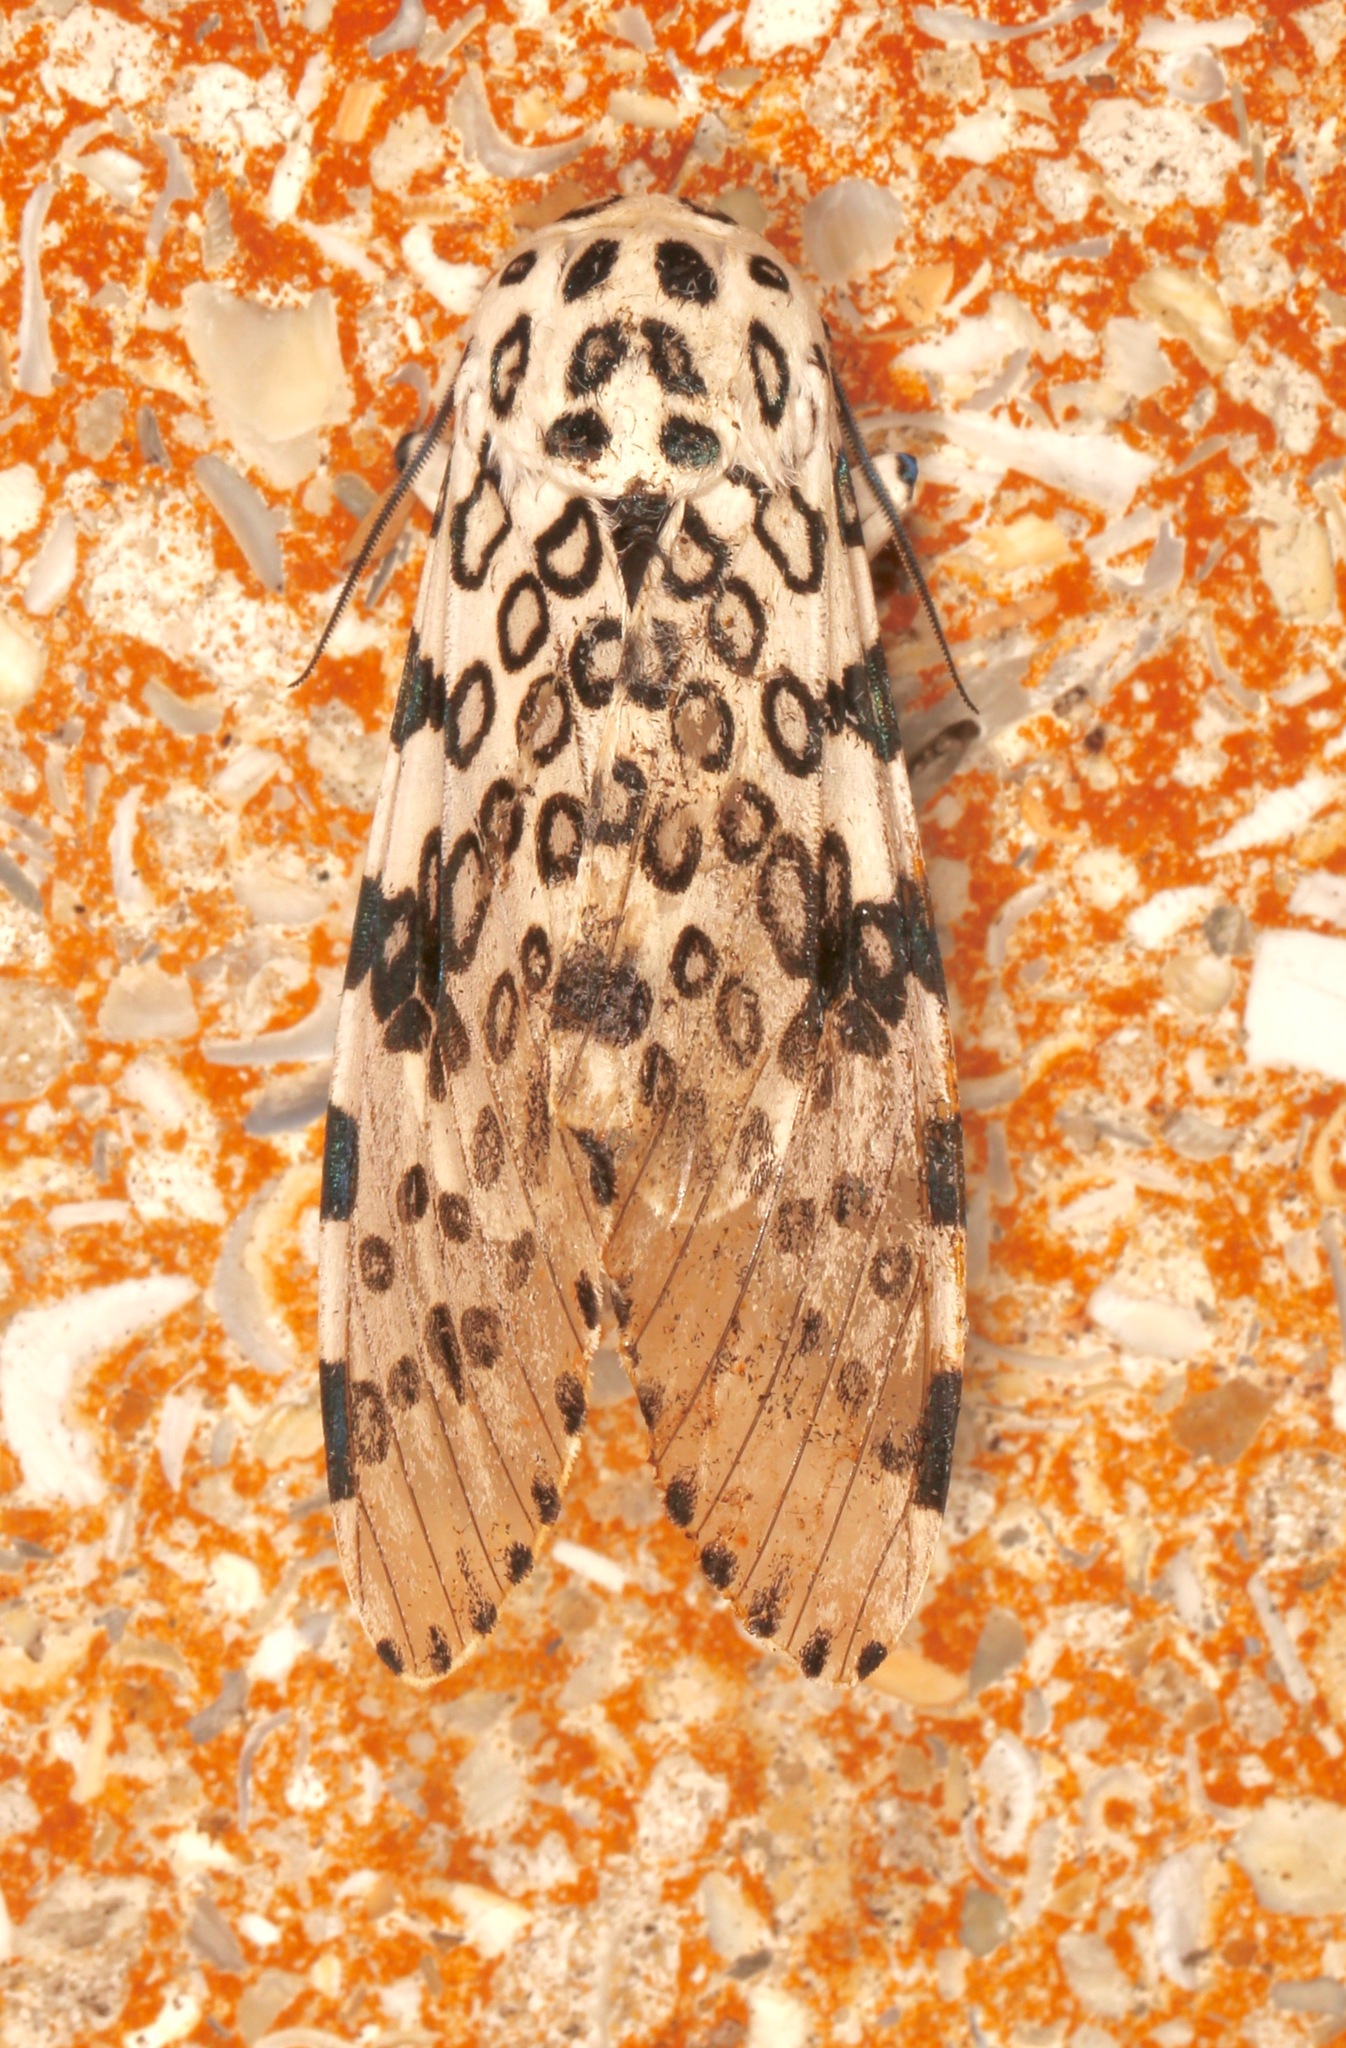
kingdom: Animalia
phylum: Arthropoda
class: Insecta
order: Lepidoptera
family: Erebidae
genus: Hypercompe
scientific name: Hypercompe scribonia
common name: Giant leopard moth
